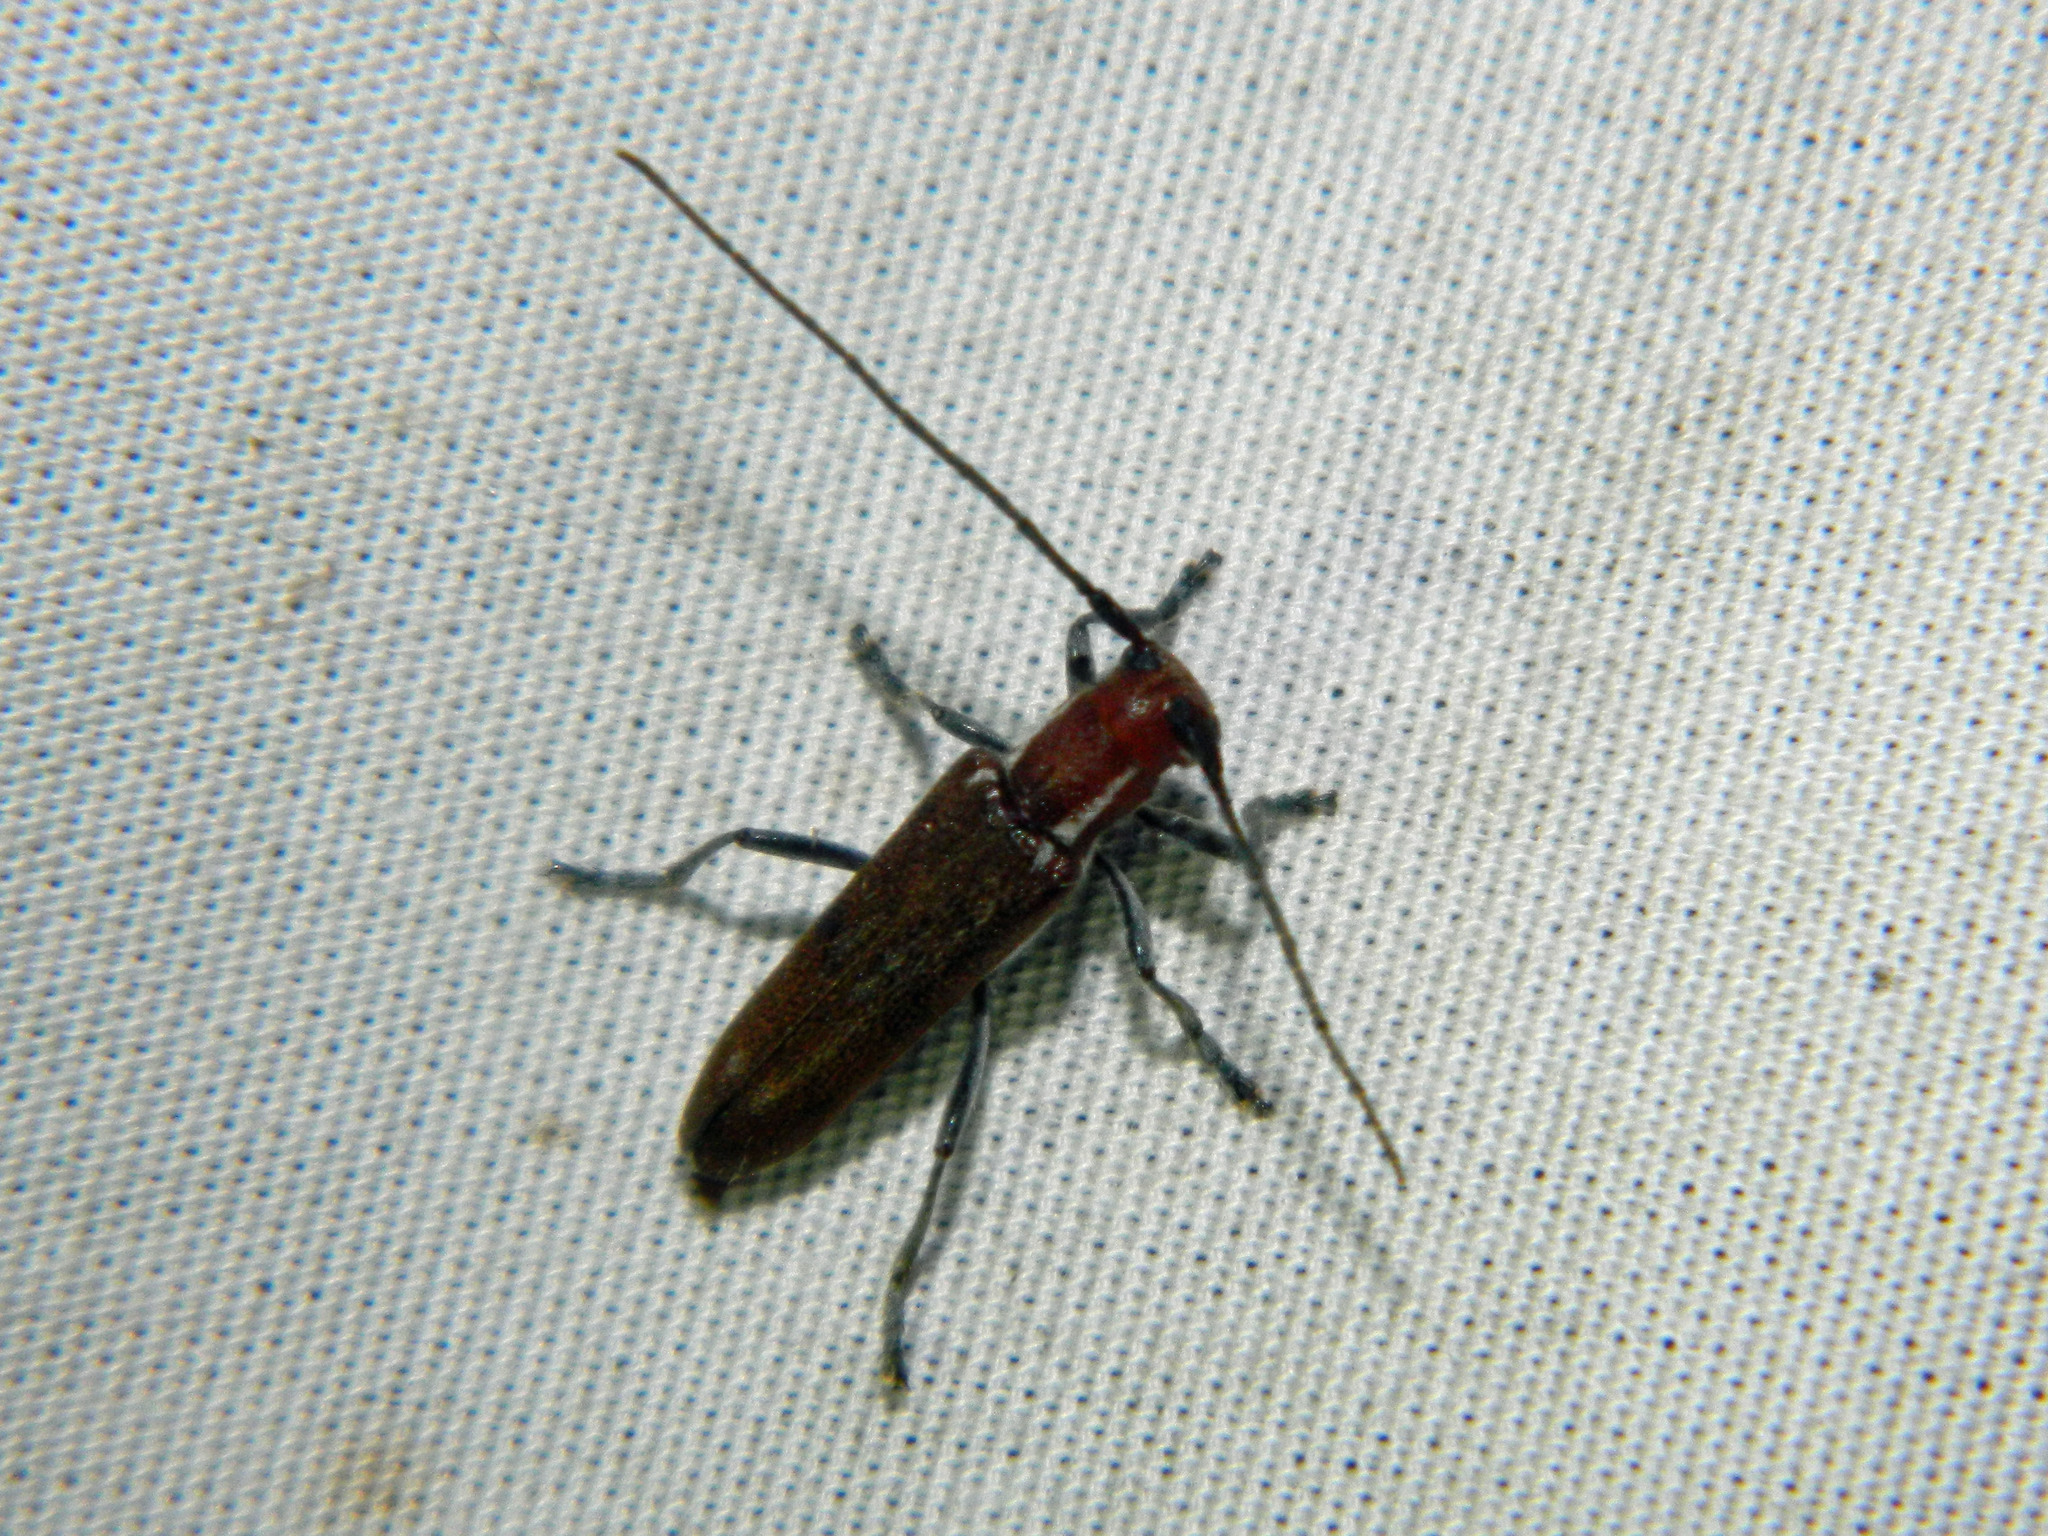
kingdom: Animalia
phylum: Arthropoda
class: Insecta
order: Coleoptera
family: Cerambycidae
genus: Saperda
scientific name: Saperda fayi
